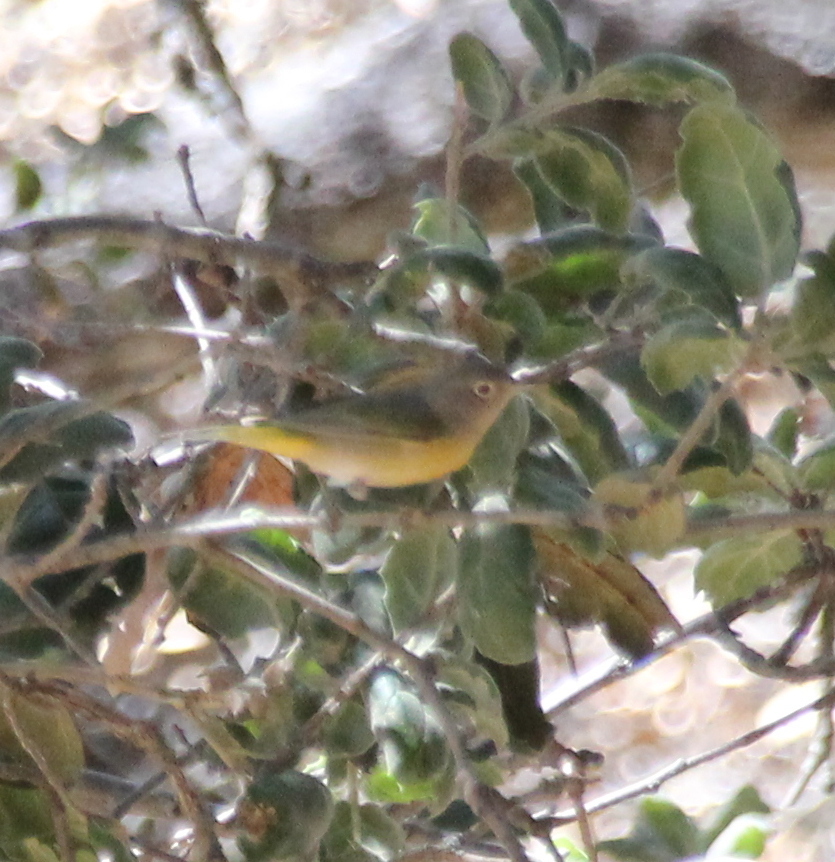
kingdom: Animalia
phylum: Chordata
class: Aves
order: Passeriformes
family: Parulidae
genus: Leiothlypis
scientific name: Leiothlypis ruficapilla
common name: Nashville warbler
